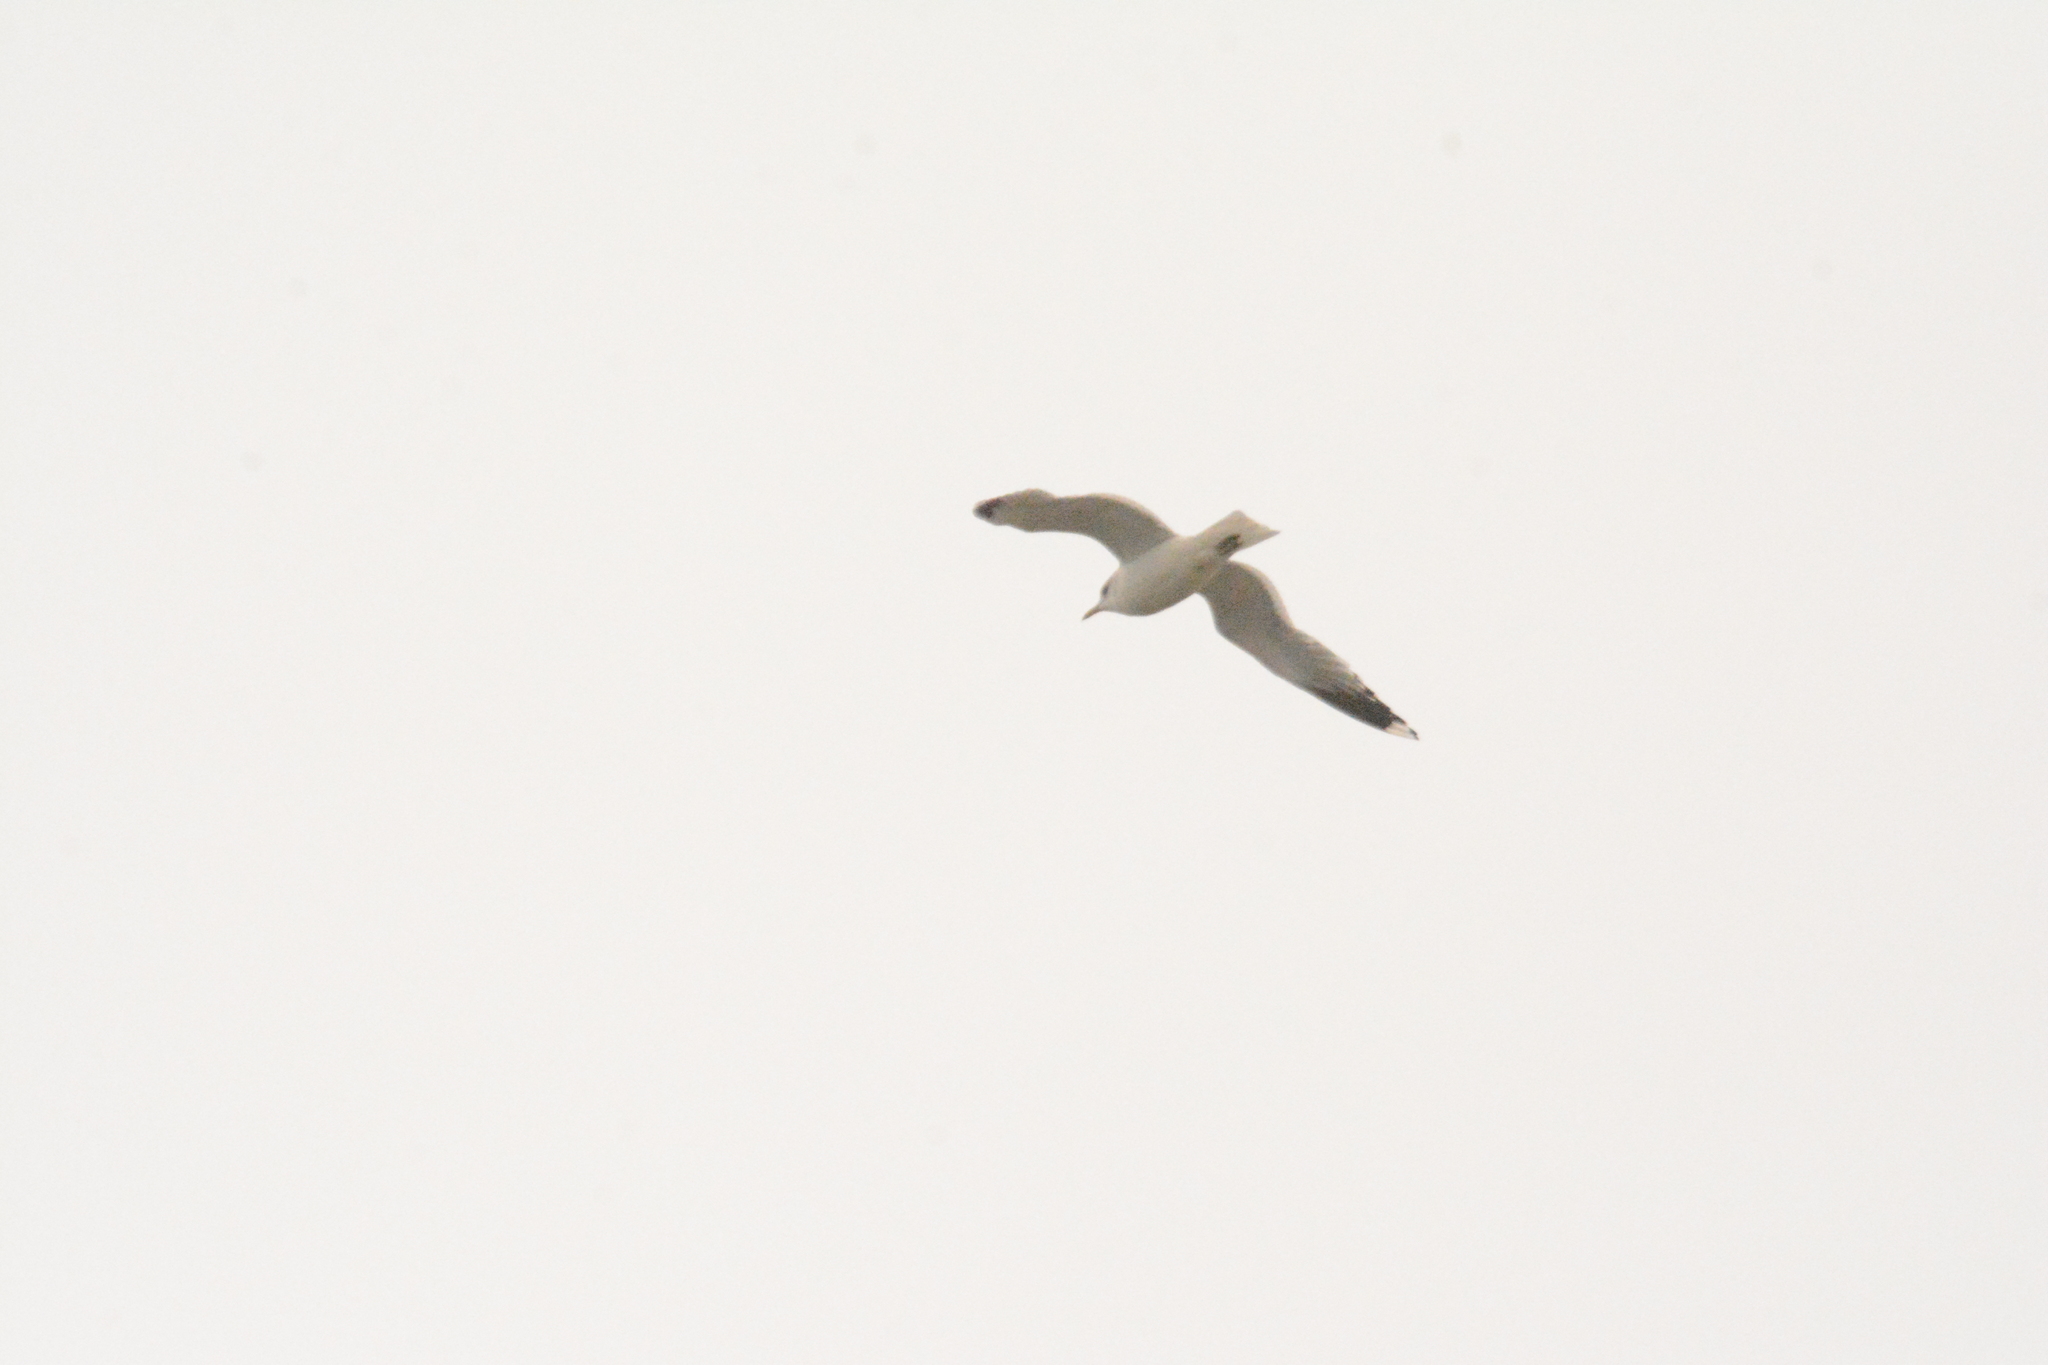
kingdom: Animalia
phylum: Chordata
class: Aves
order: Charadriiformes
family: Laridae
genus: Larus
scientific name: Larus canus
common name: Mew gull
